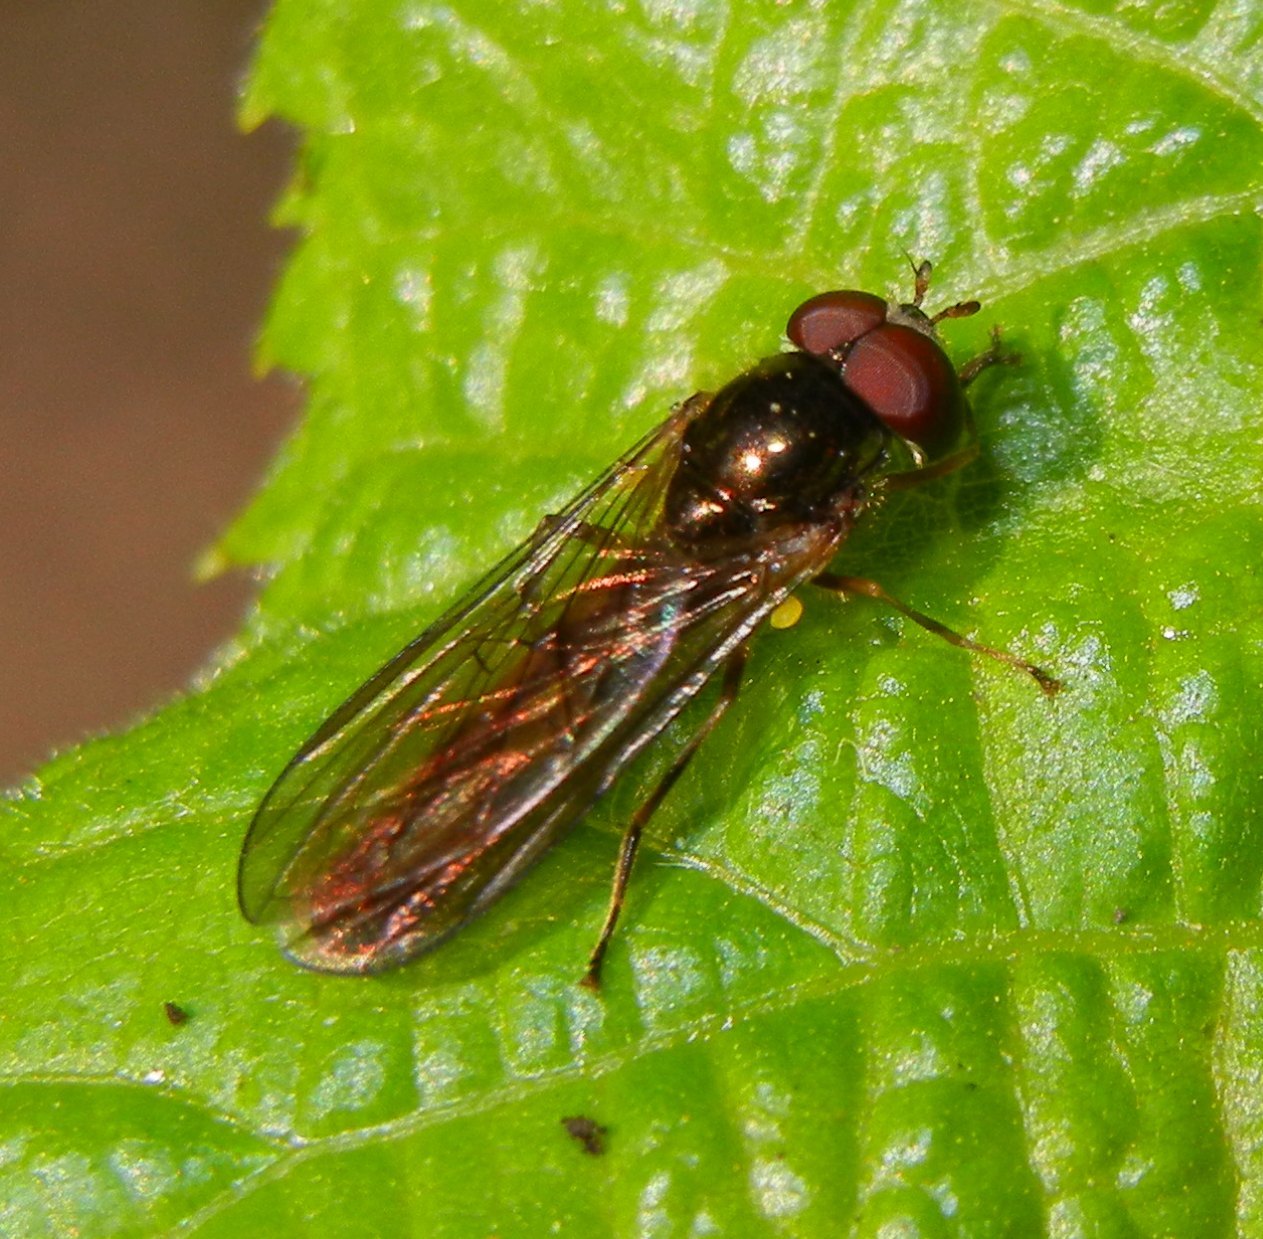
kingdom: Animalia
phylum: Arthropoda
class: Insecta
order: Diptera
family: Syrphidae
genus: Melanostoma
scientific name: Melanostoma scalare
